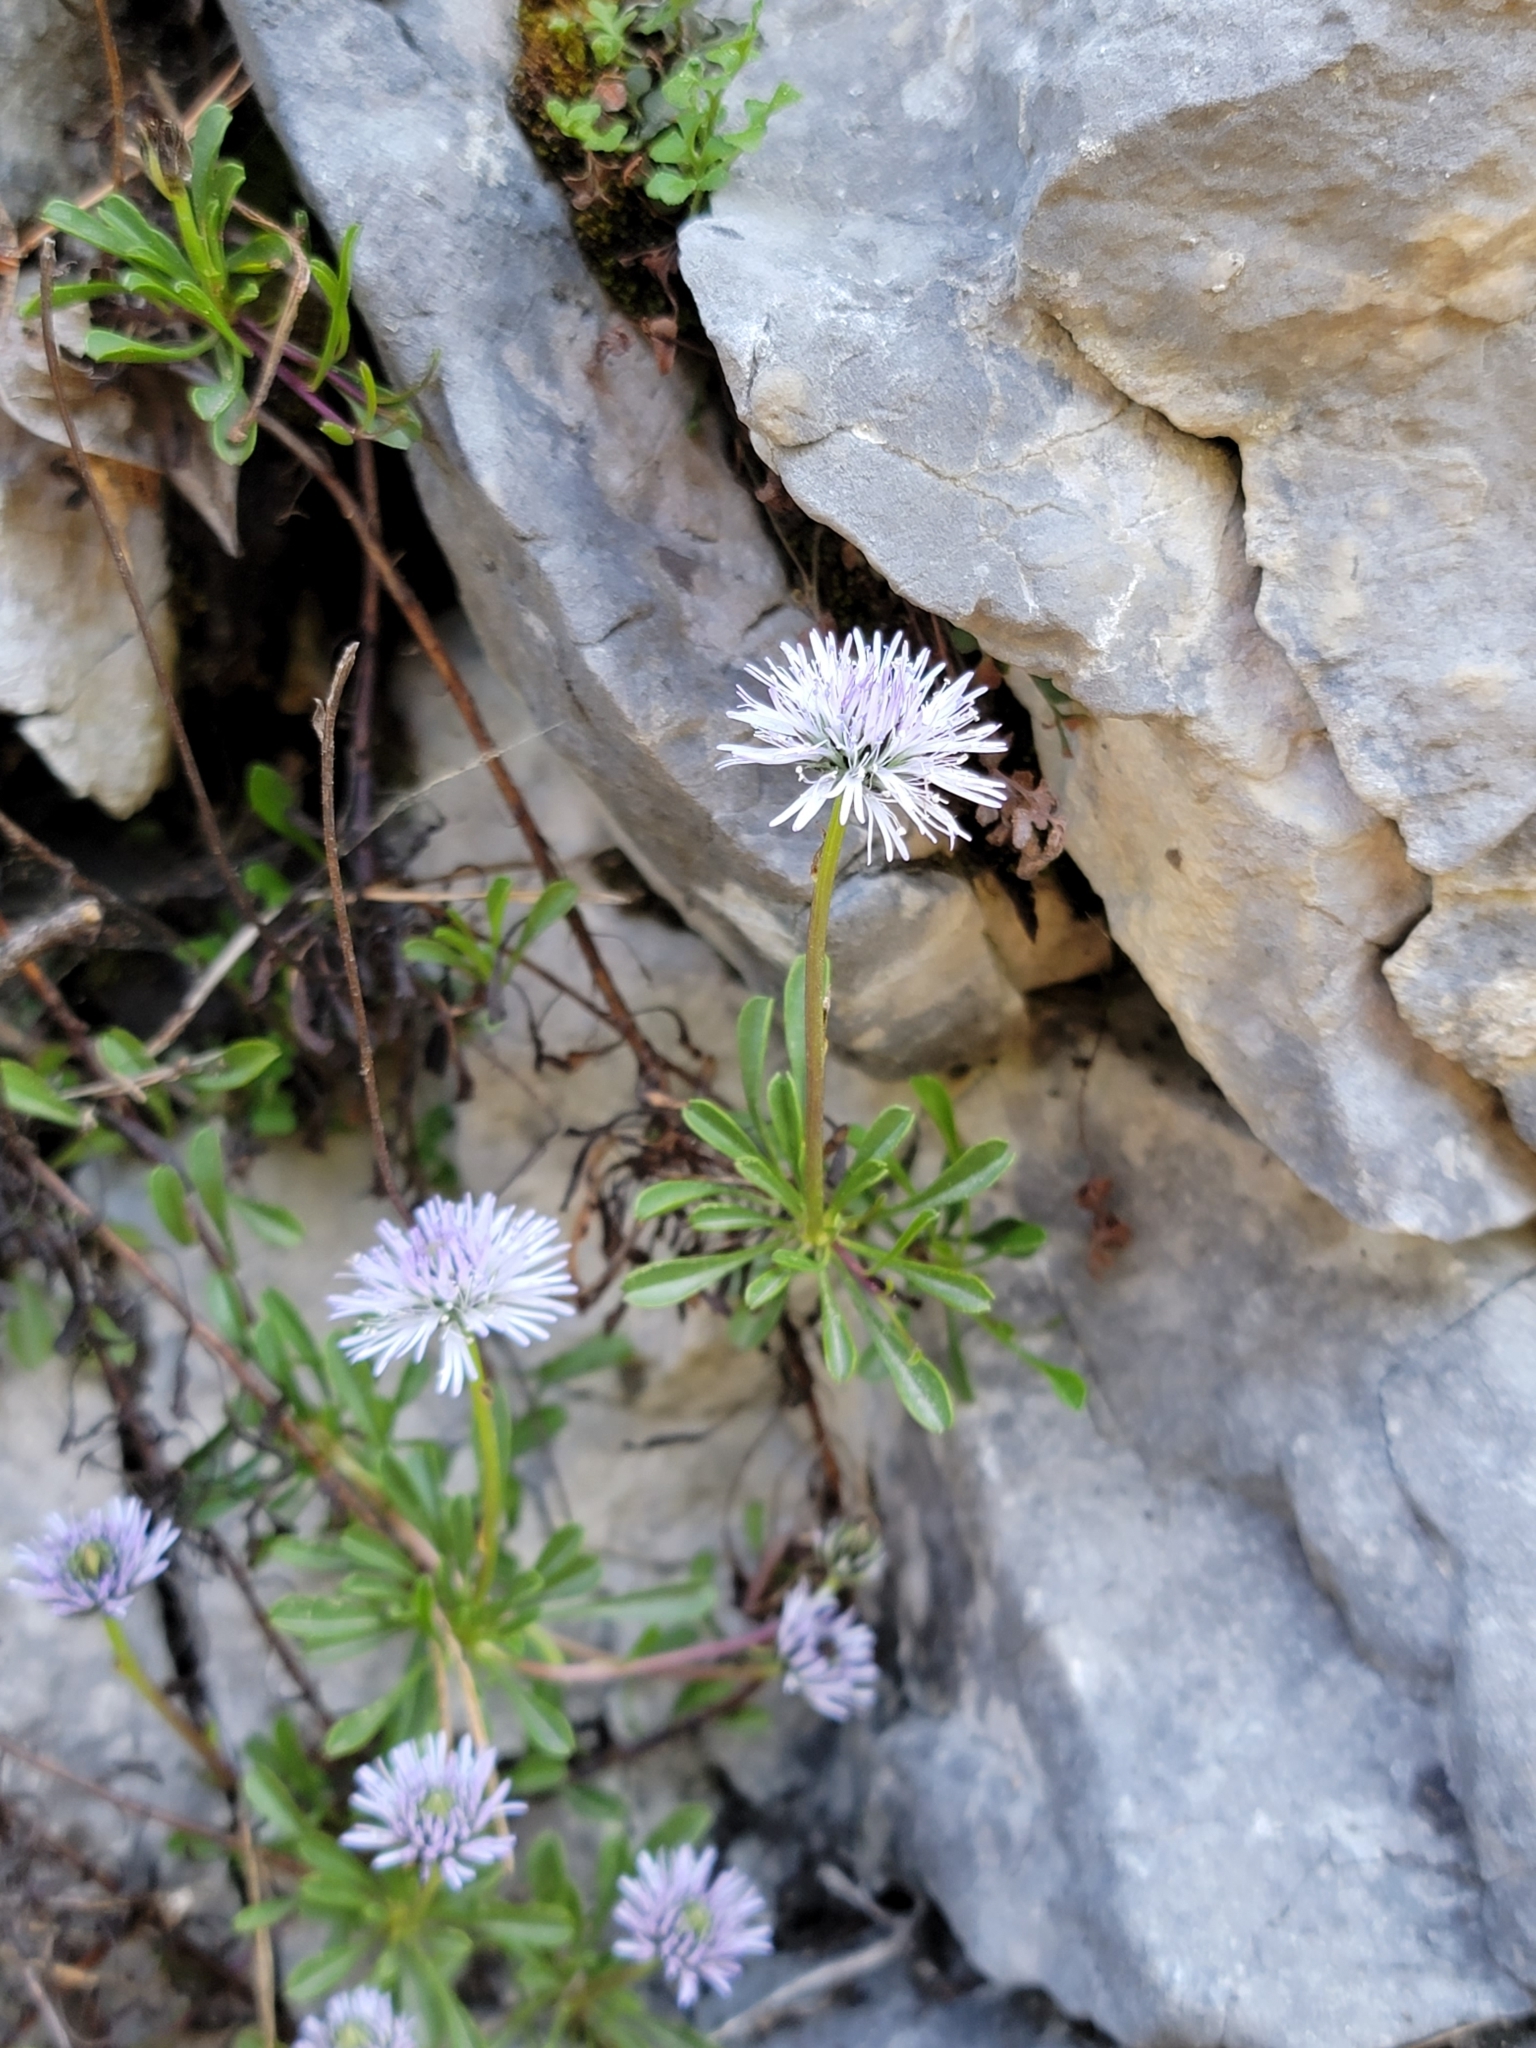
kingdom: Plantae
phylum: Tracheophyta
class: Magnoliopsida
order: Lamiales
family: Plantaginaceae
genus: Globularia
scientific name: Globularia cordifolia
